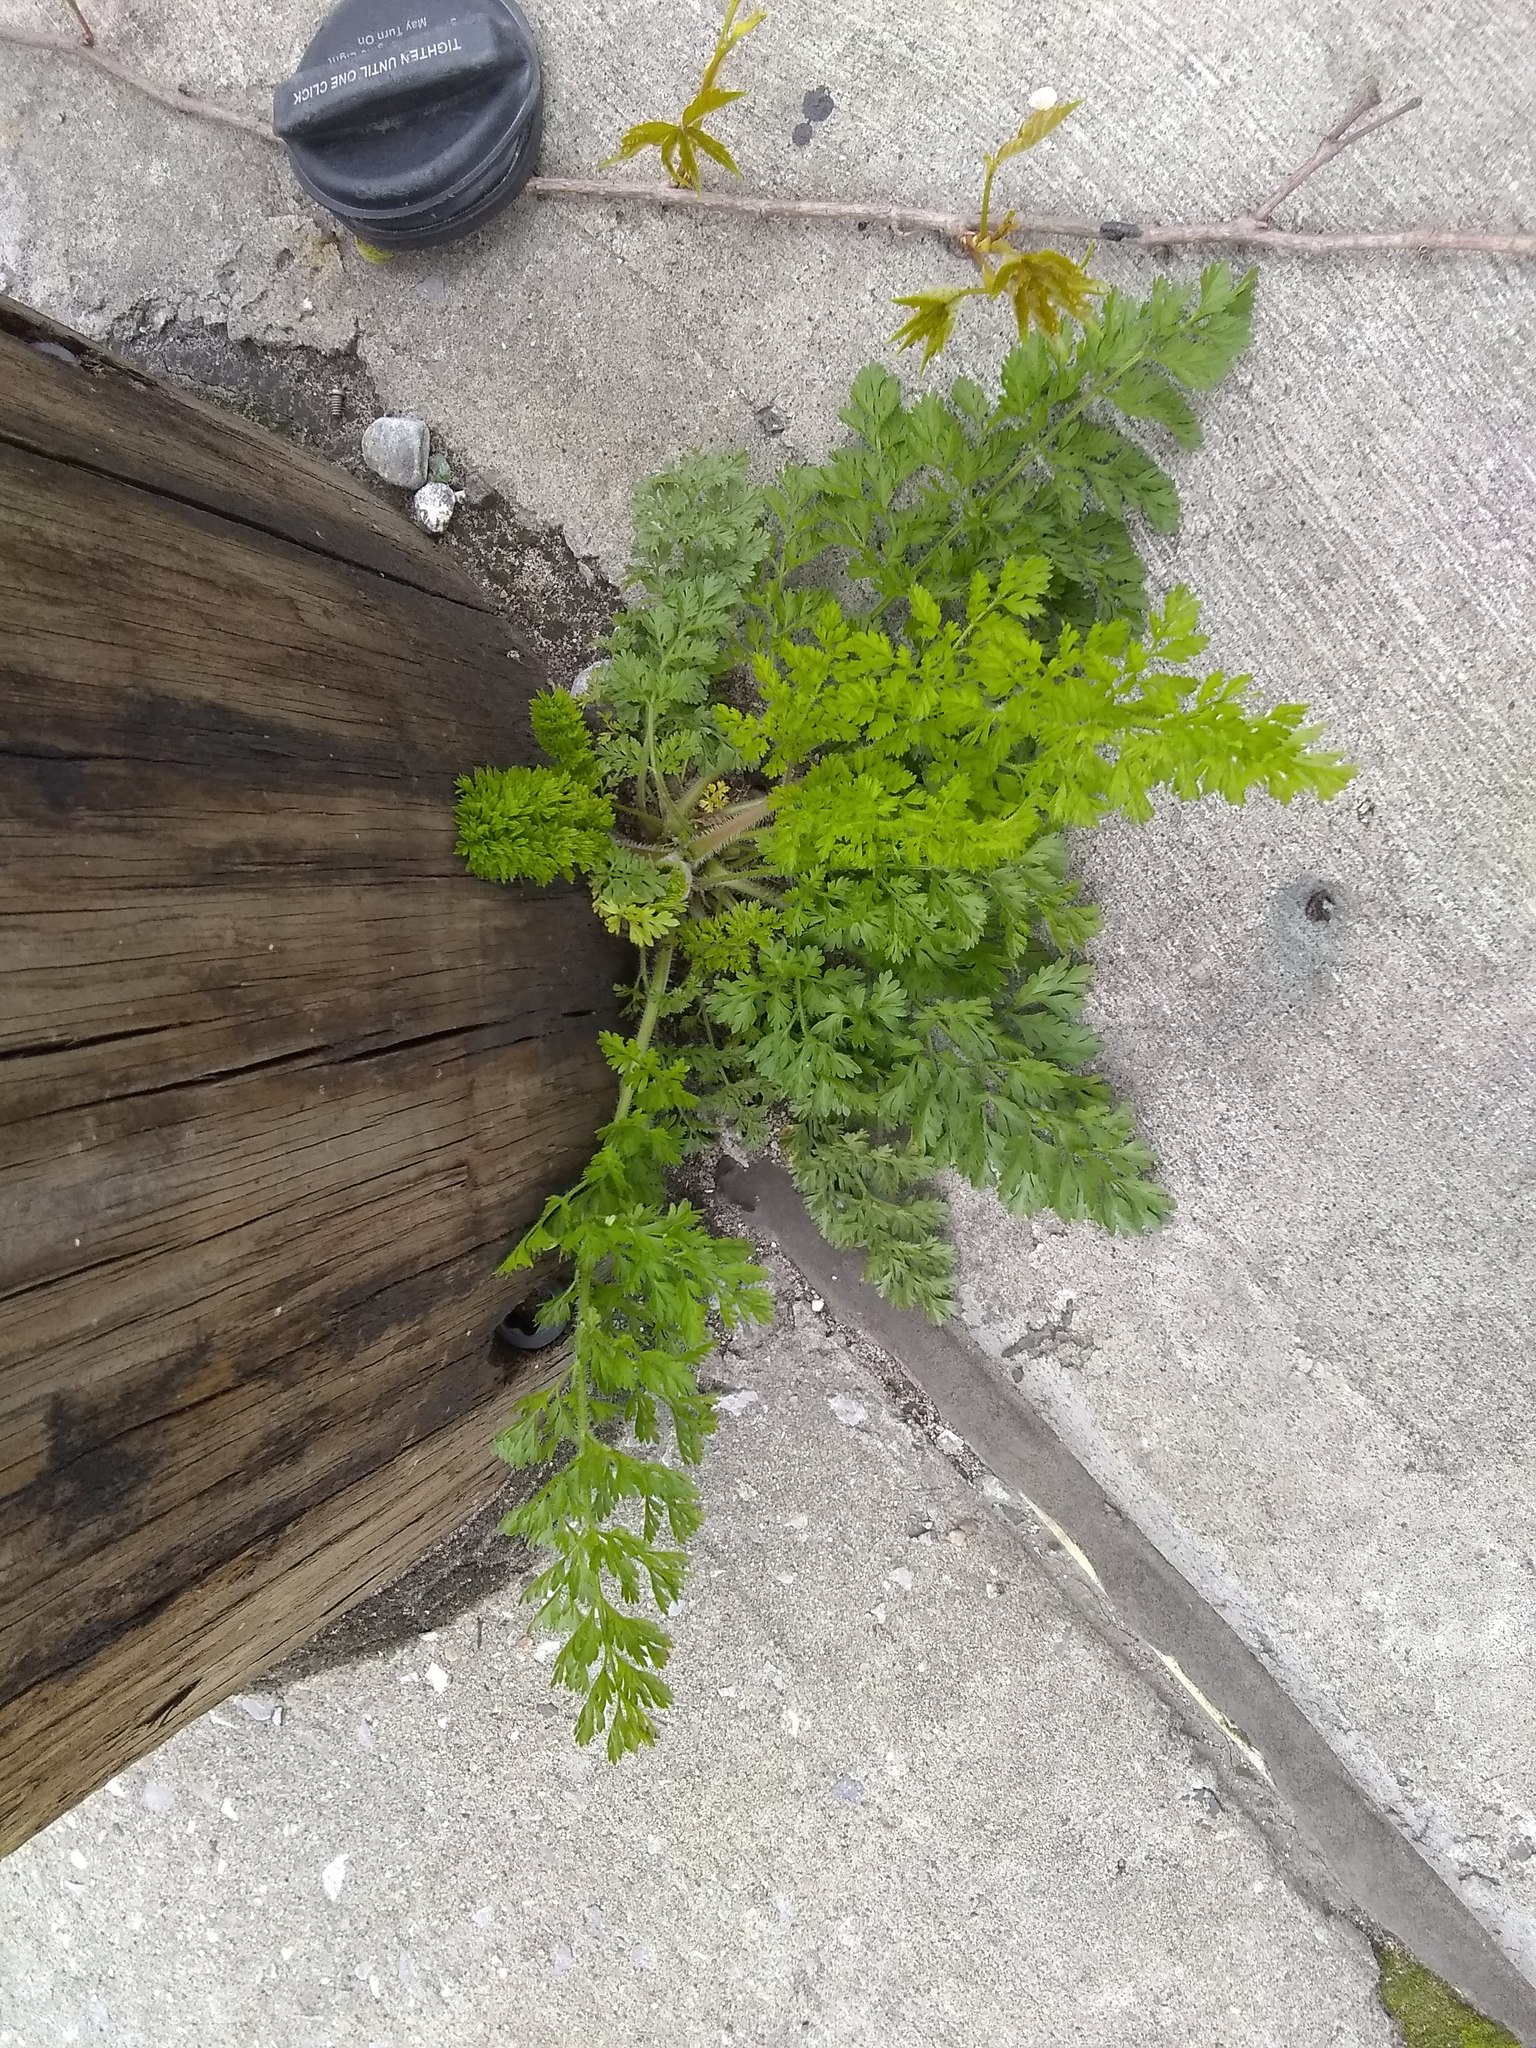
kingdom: Plantae
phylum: Tracheophyta
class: Magnoliopsida
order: Apiales
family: Apiaceae
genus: Daucus
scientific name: Daucus carota
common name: Wild carrot
